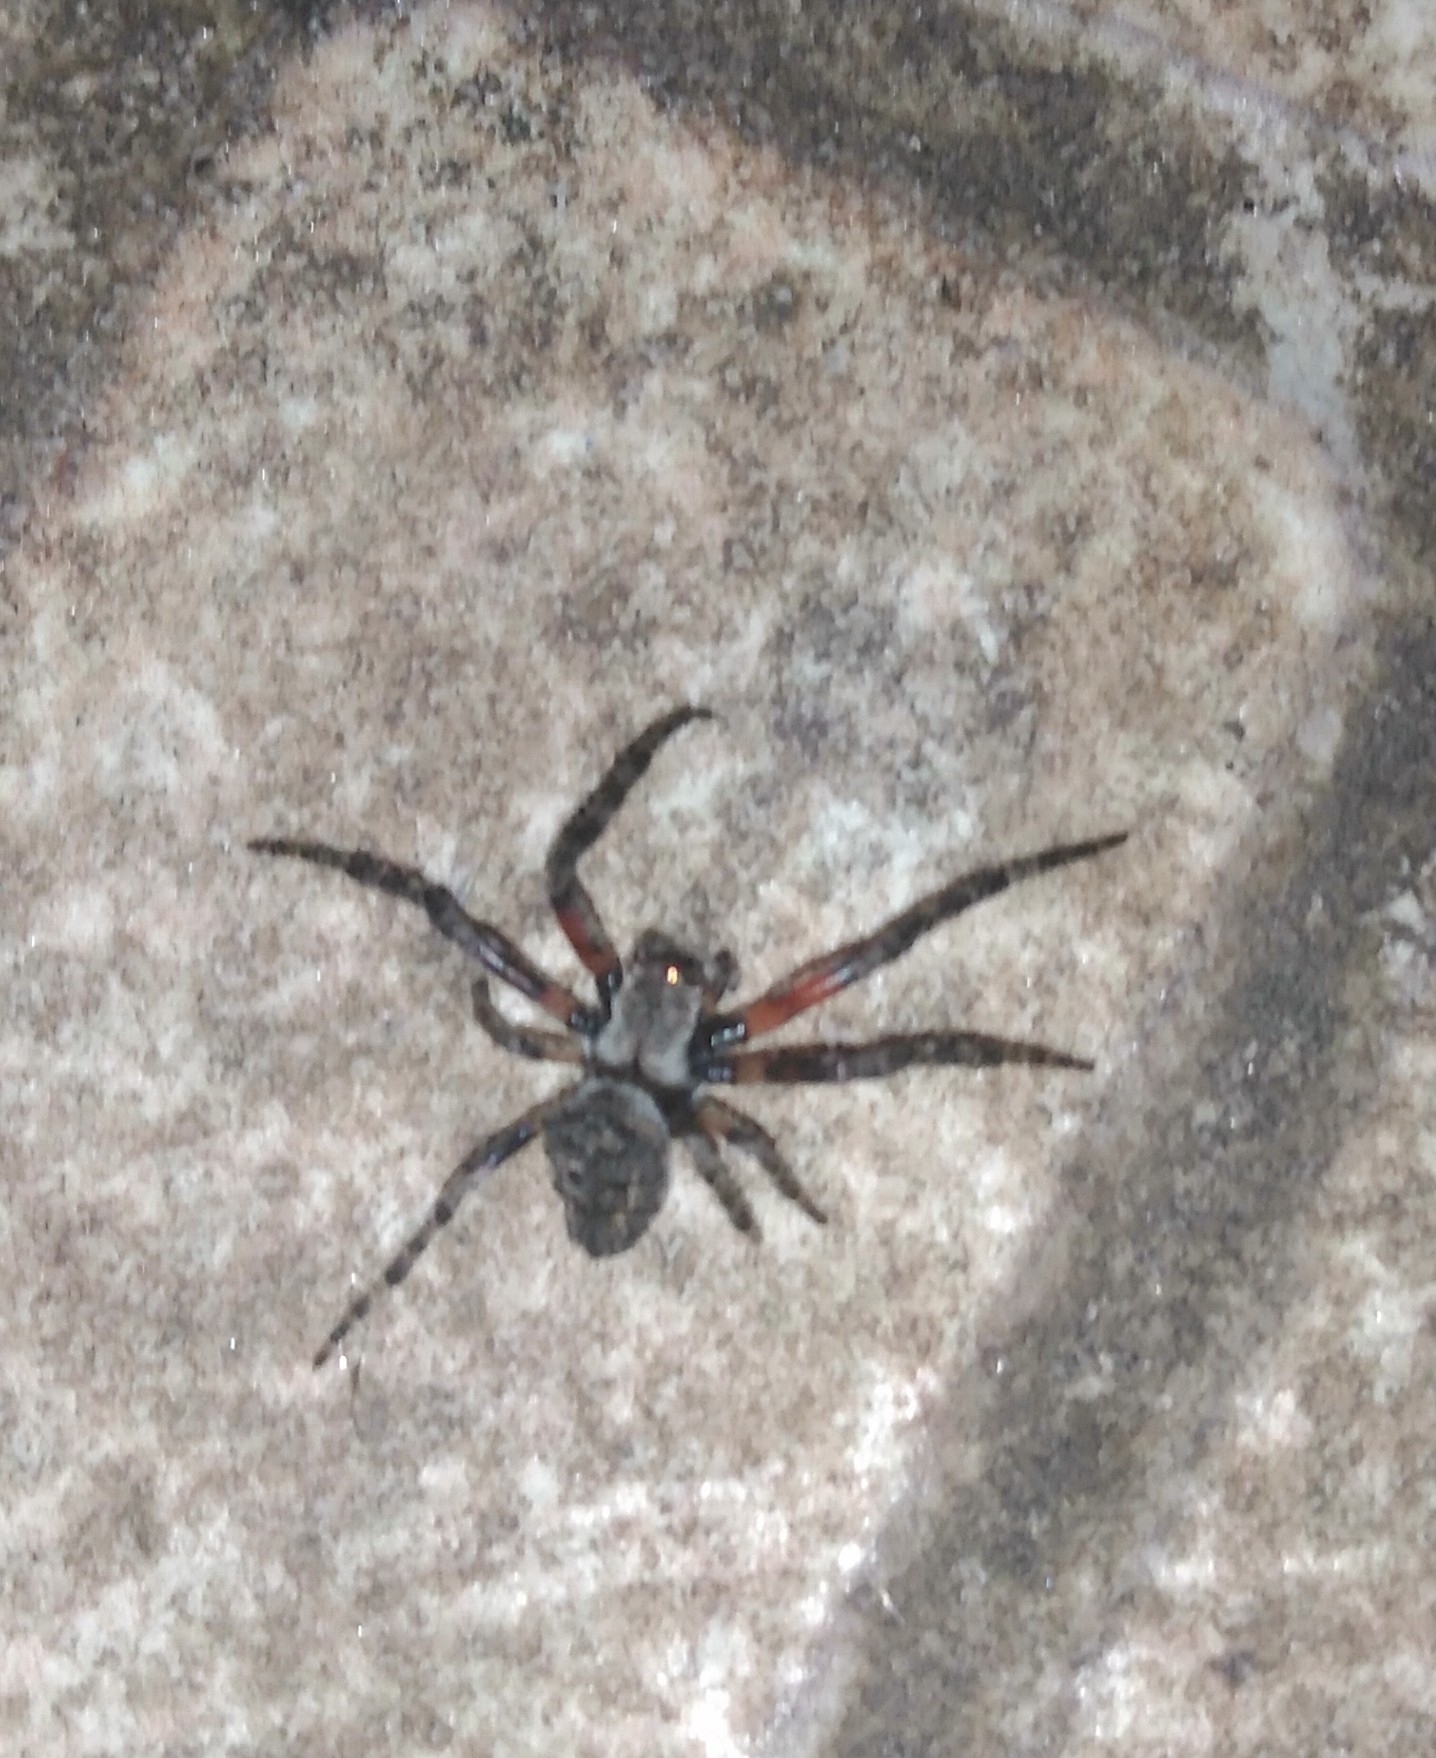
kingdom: Animalia
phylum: Arthropoda
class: Arachnida
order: Araneae
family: Araneidae
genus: Parawixia
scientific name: Parawixia audax
